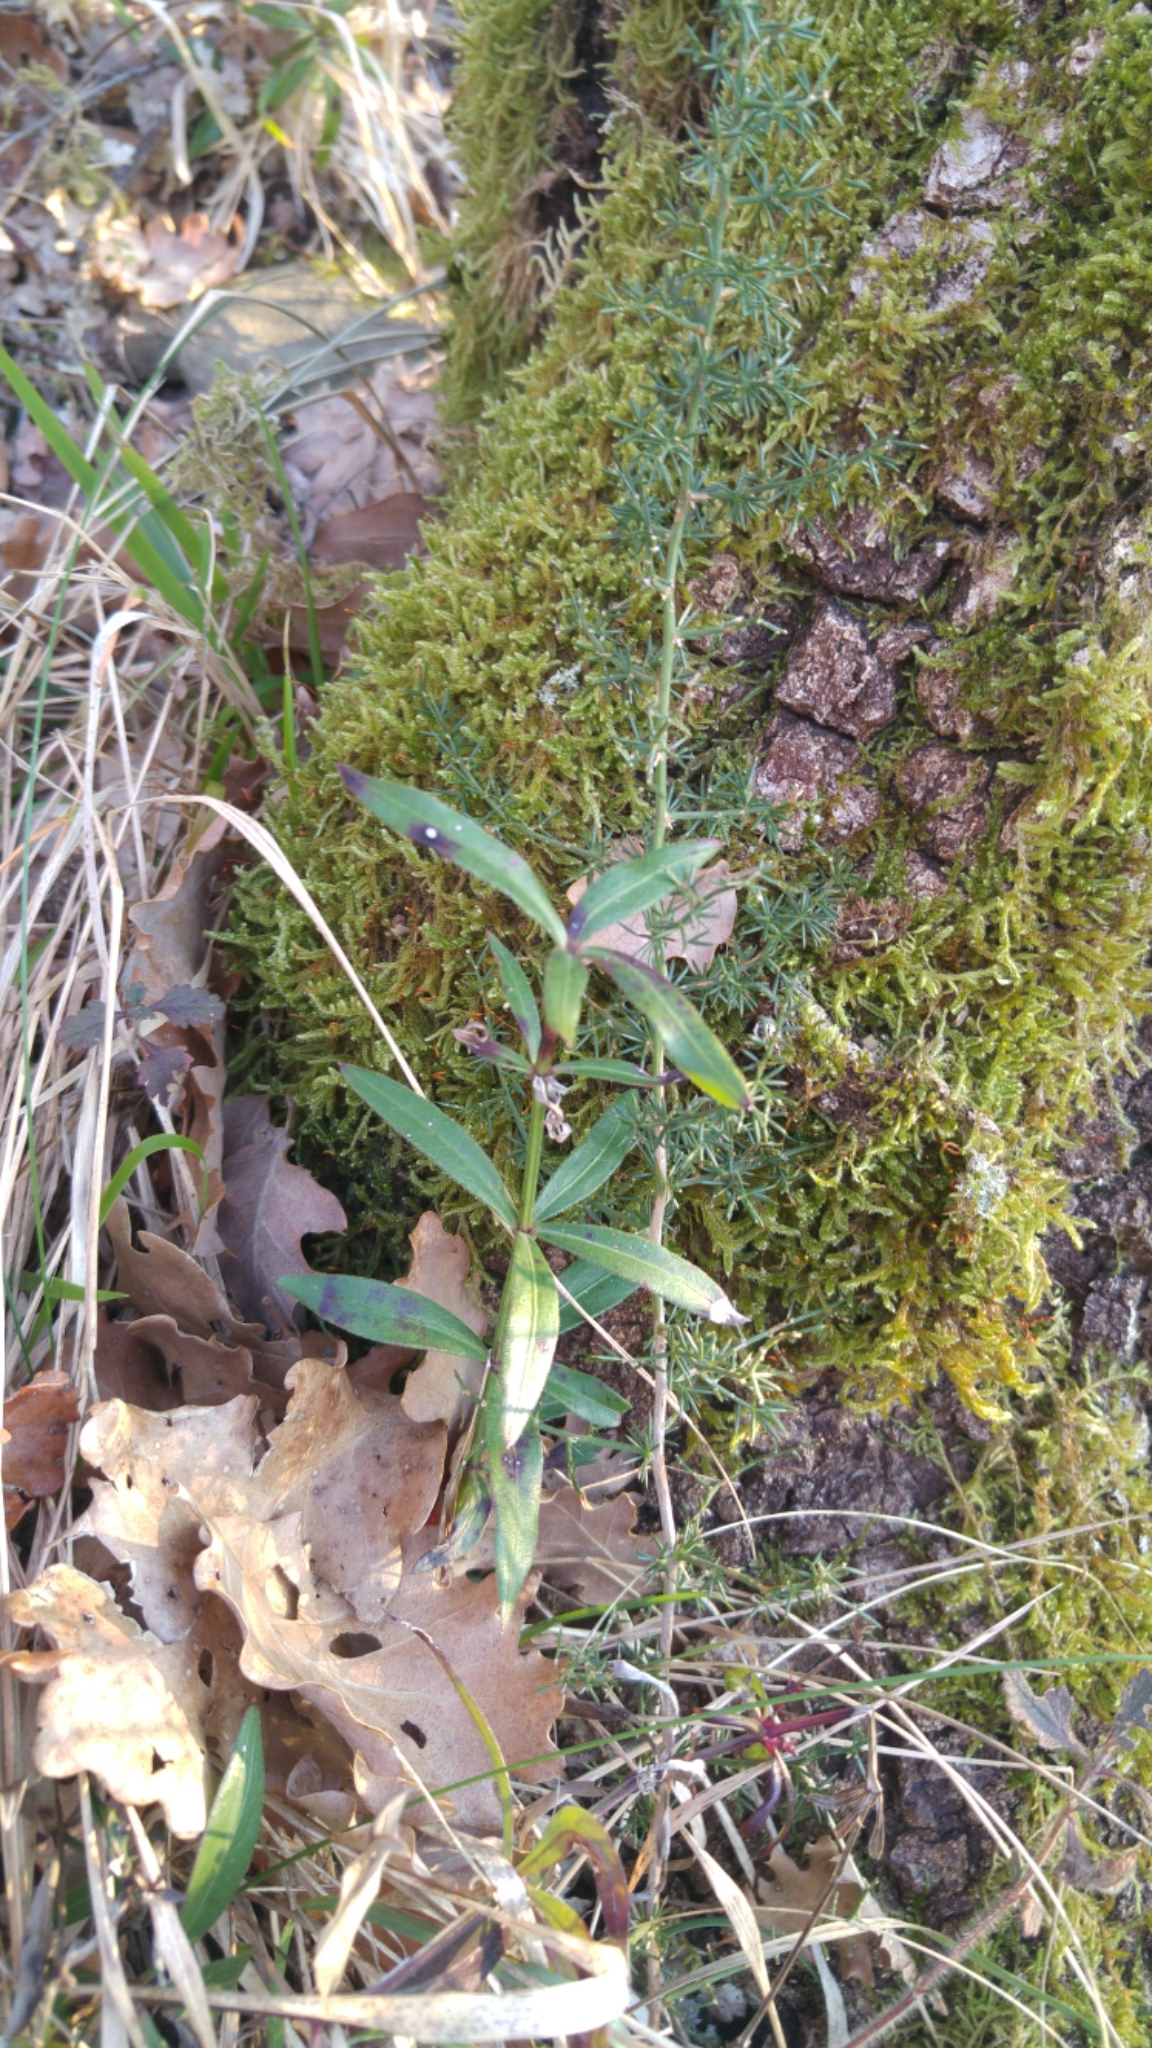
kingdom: Plantae
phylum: Tracheophyta
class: Magnoliopsida
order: Gentianales
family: Rubiaceae
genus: Rubia
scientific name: Rubia peregrina
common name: Wild madder
